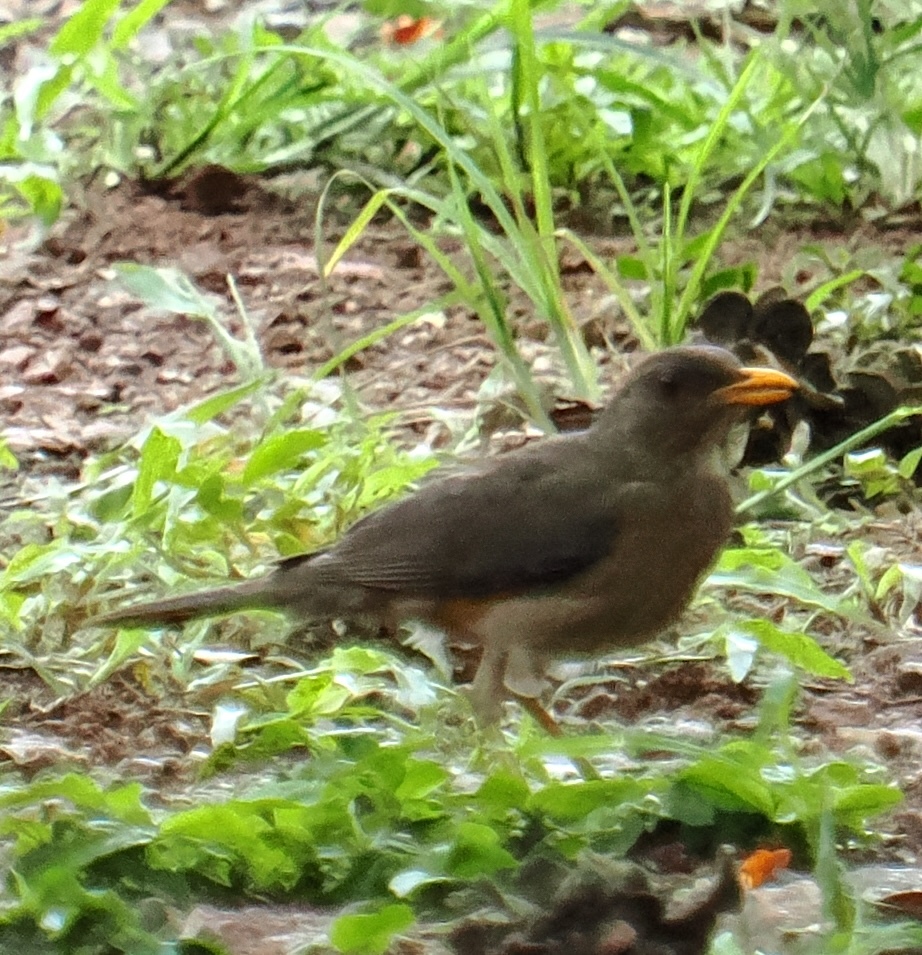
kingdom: Animalia
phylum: Chordata
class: Aves
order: Passeriformes
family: Turdidae
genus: Turdus
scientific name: Turdus pelios
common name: African thrush
